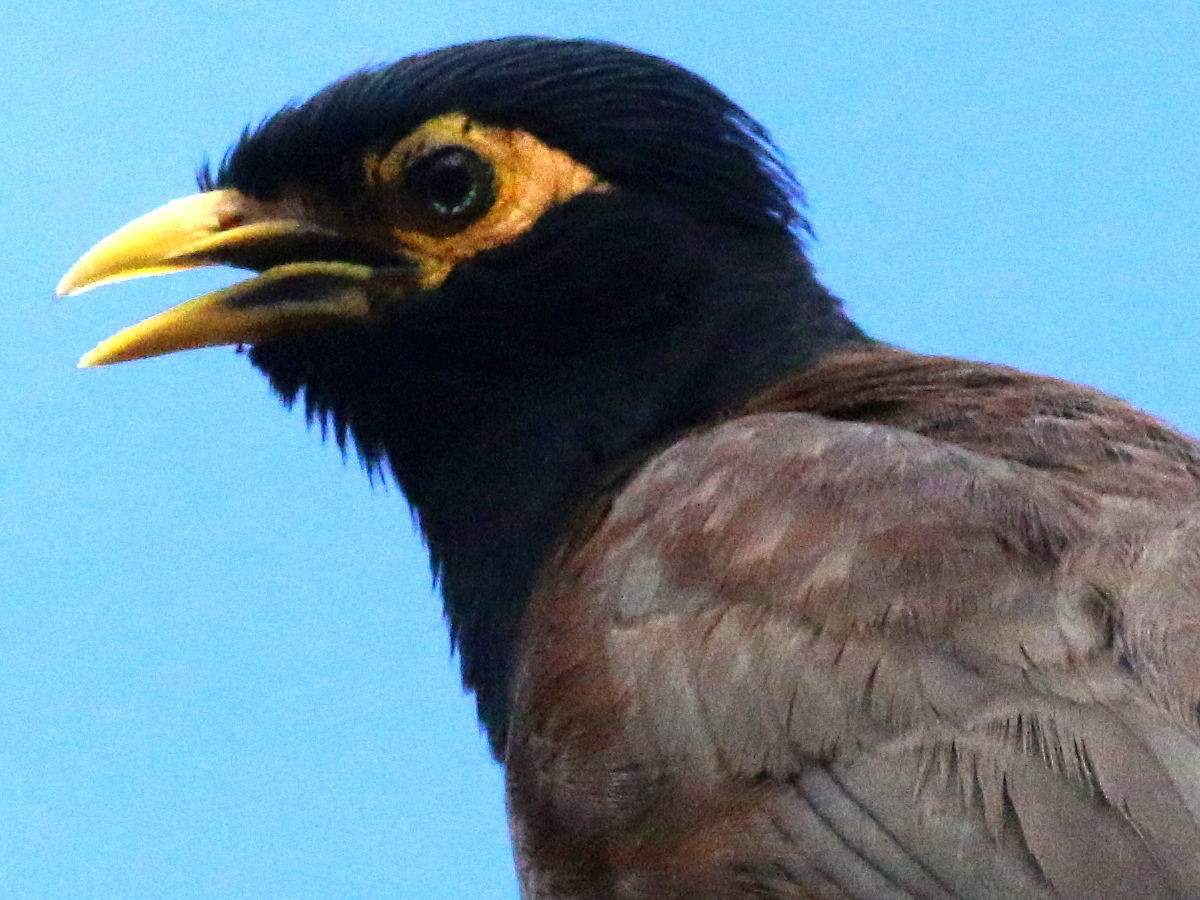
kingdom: Animalia
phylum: Chordata
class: Aves
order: Passeriformes
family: Sturnidae
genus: Acridotheres
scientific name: Acridotheres tristis
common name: Common myna
